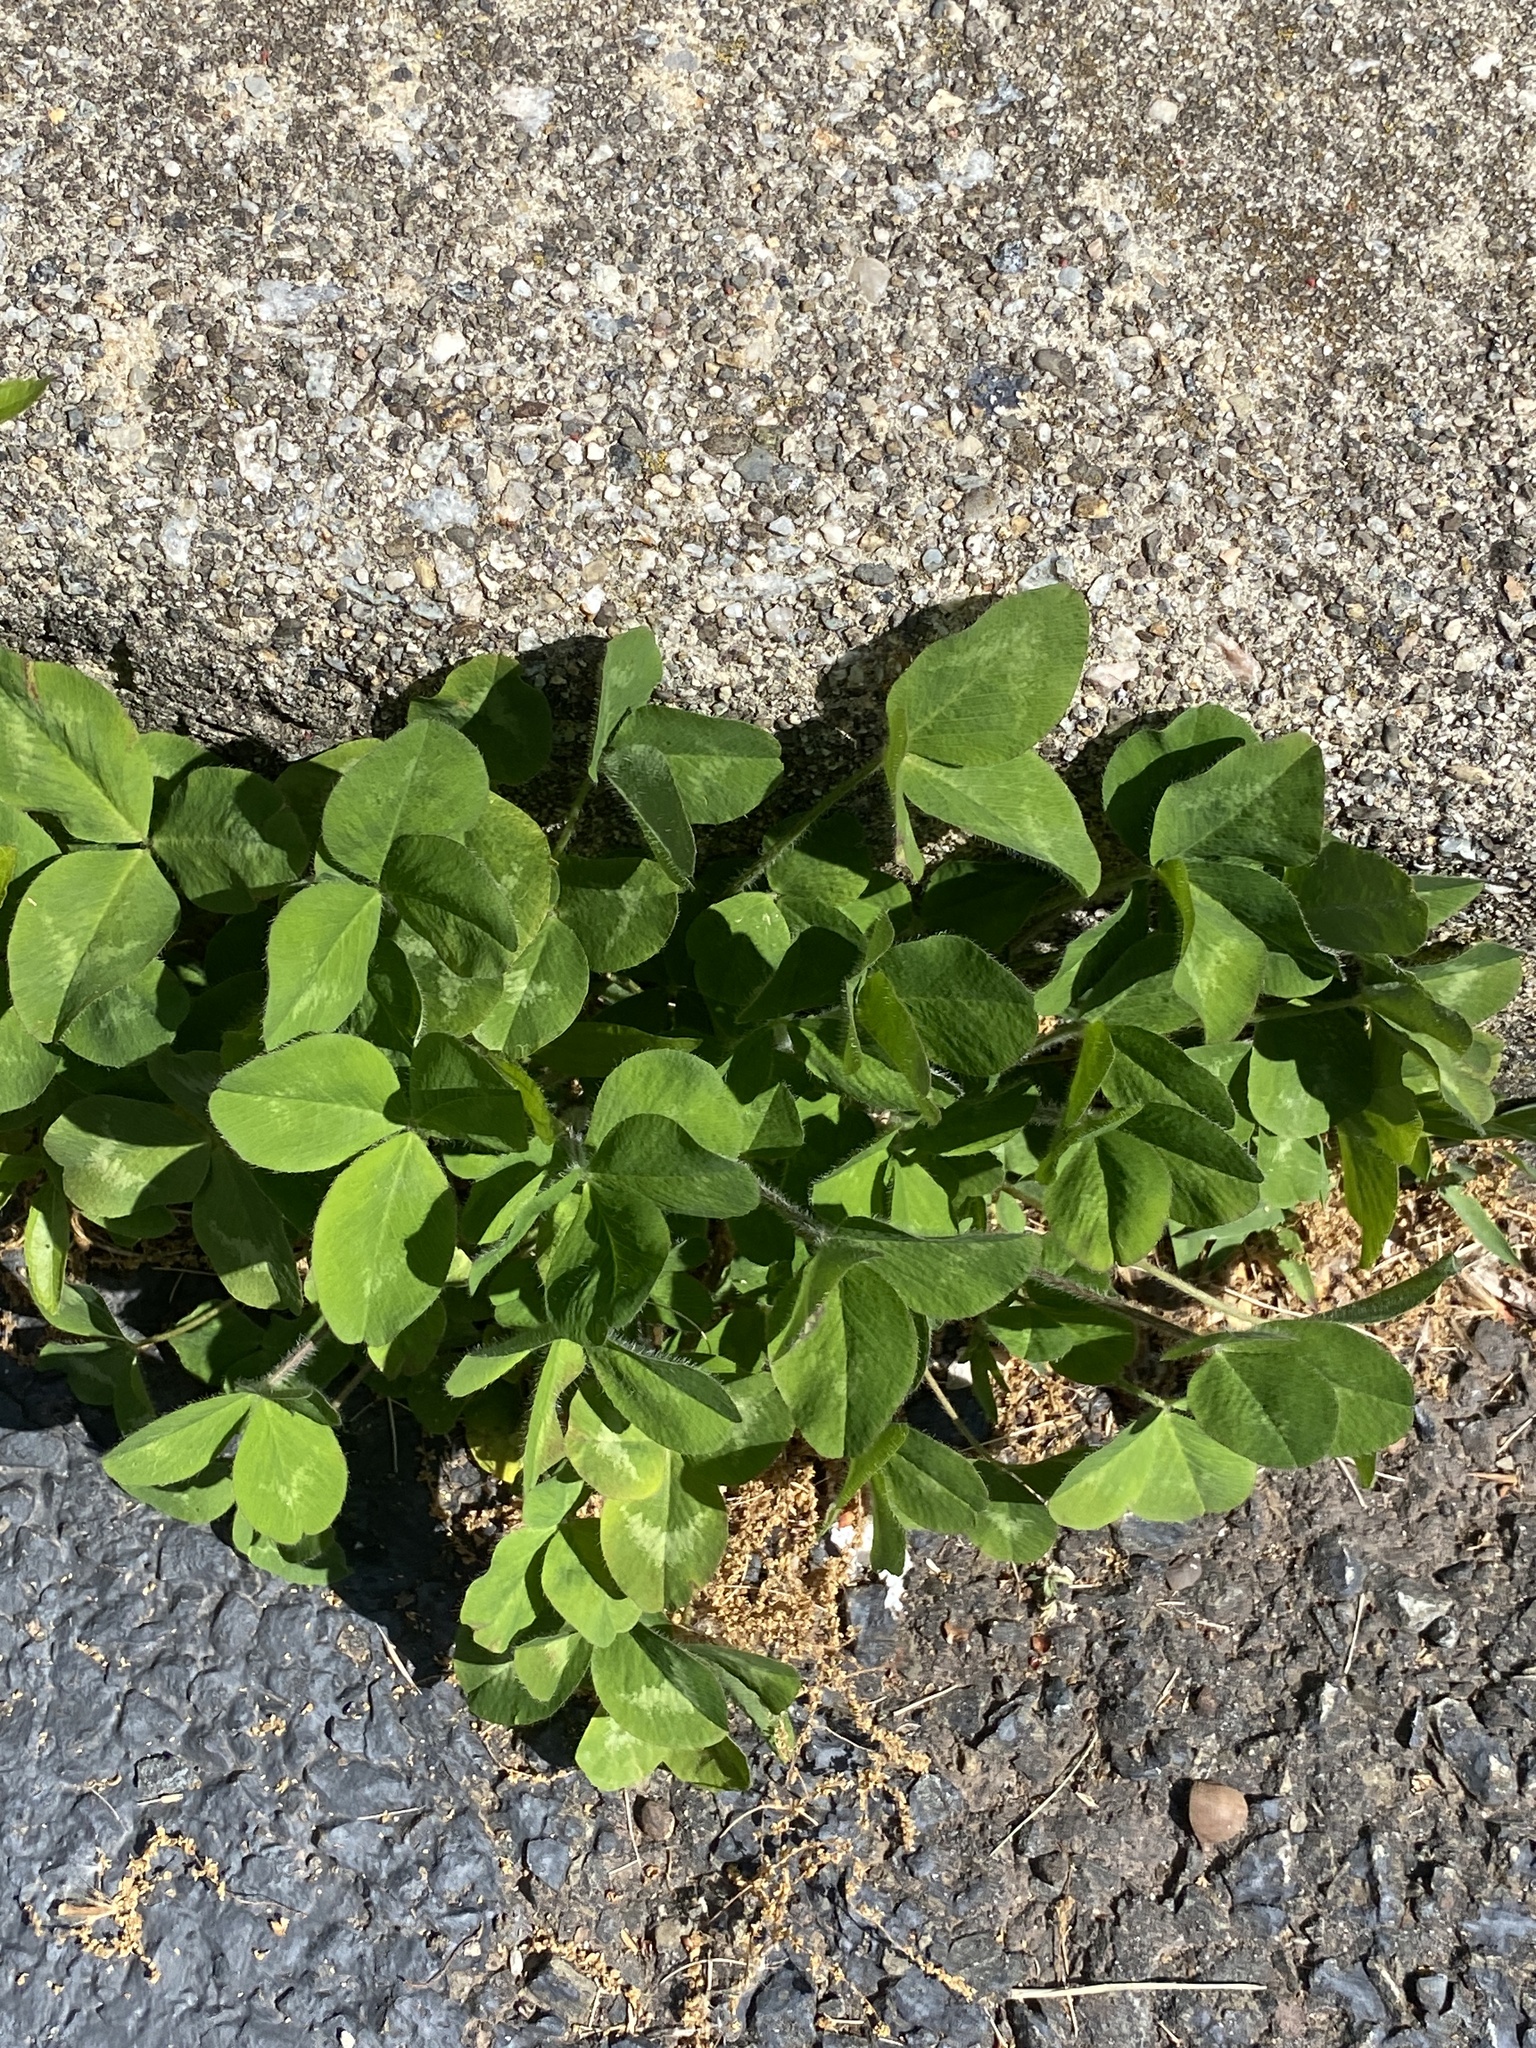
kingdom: Plantae
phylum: Tracheophyta
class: Magnoliopsida
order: Fabales
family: Fabaceae
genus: Trifolium
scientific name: Trifolium pratense
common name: Red clover
